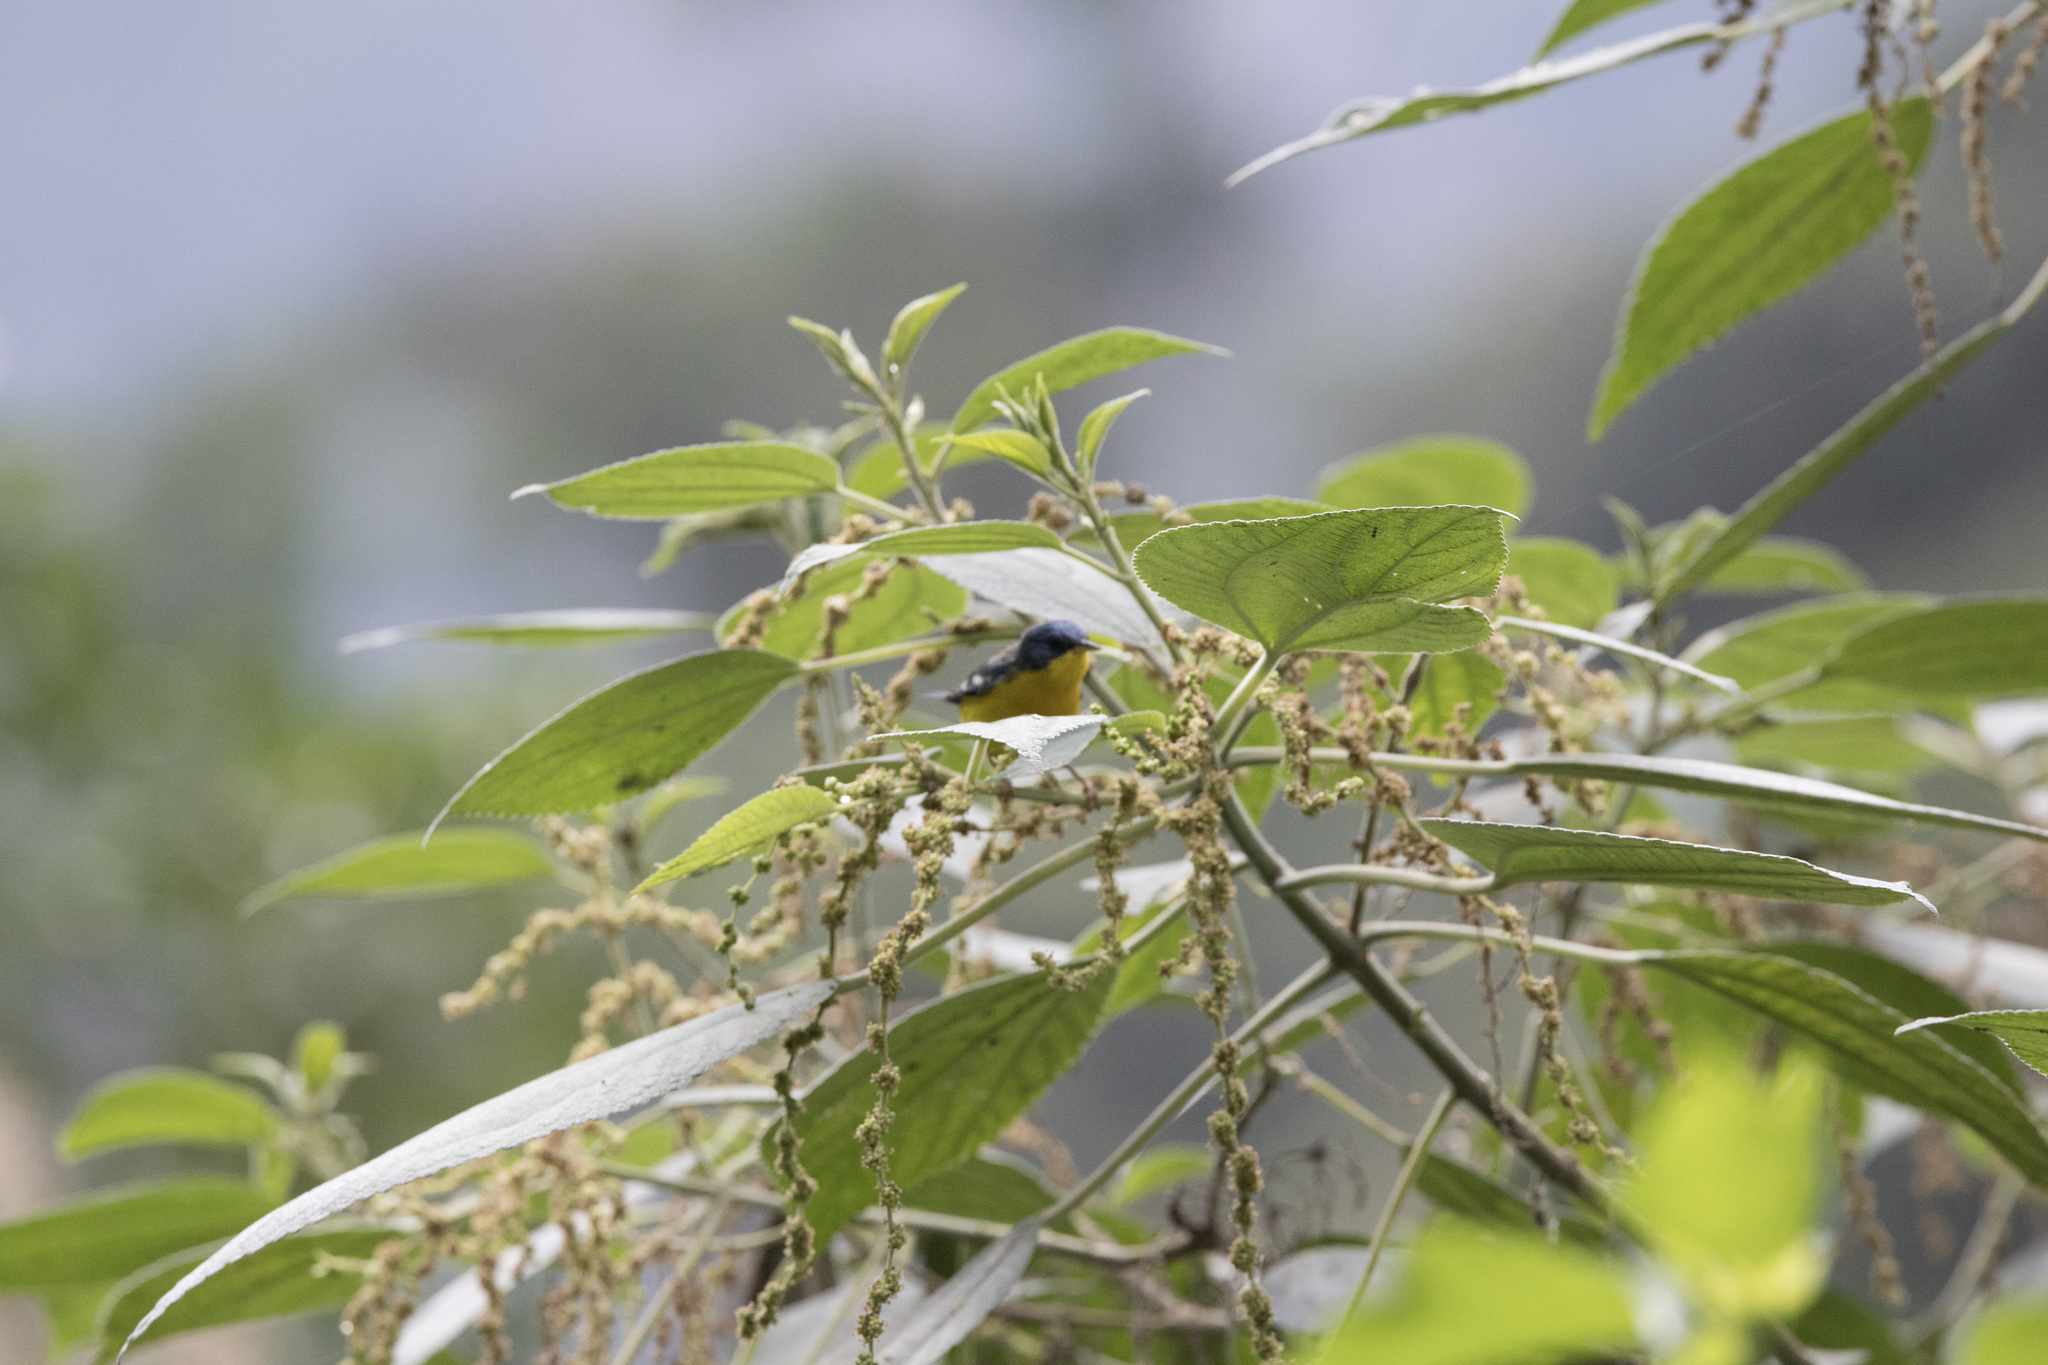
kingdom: Animalia
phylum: Chordata
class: Aves
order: Passeriformes
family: Parulidae
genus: Setophaga
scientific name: Setophaga pitiayumi
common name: Tropical parula
